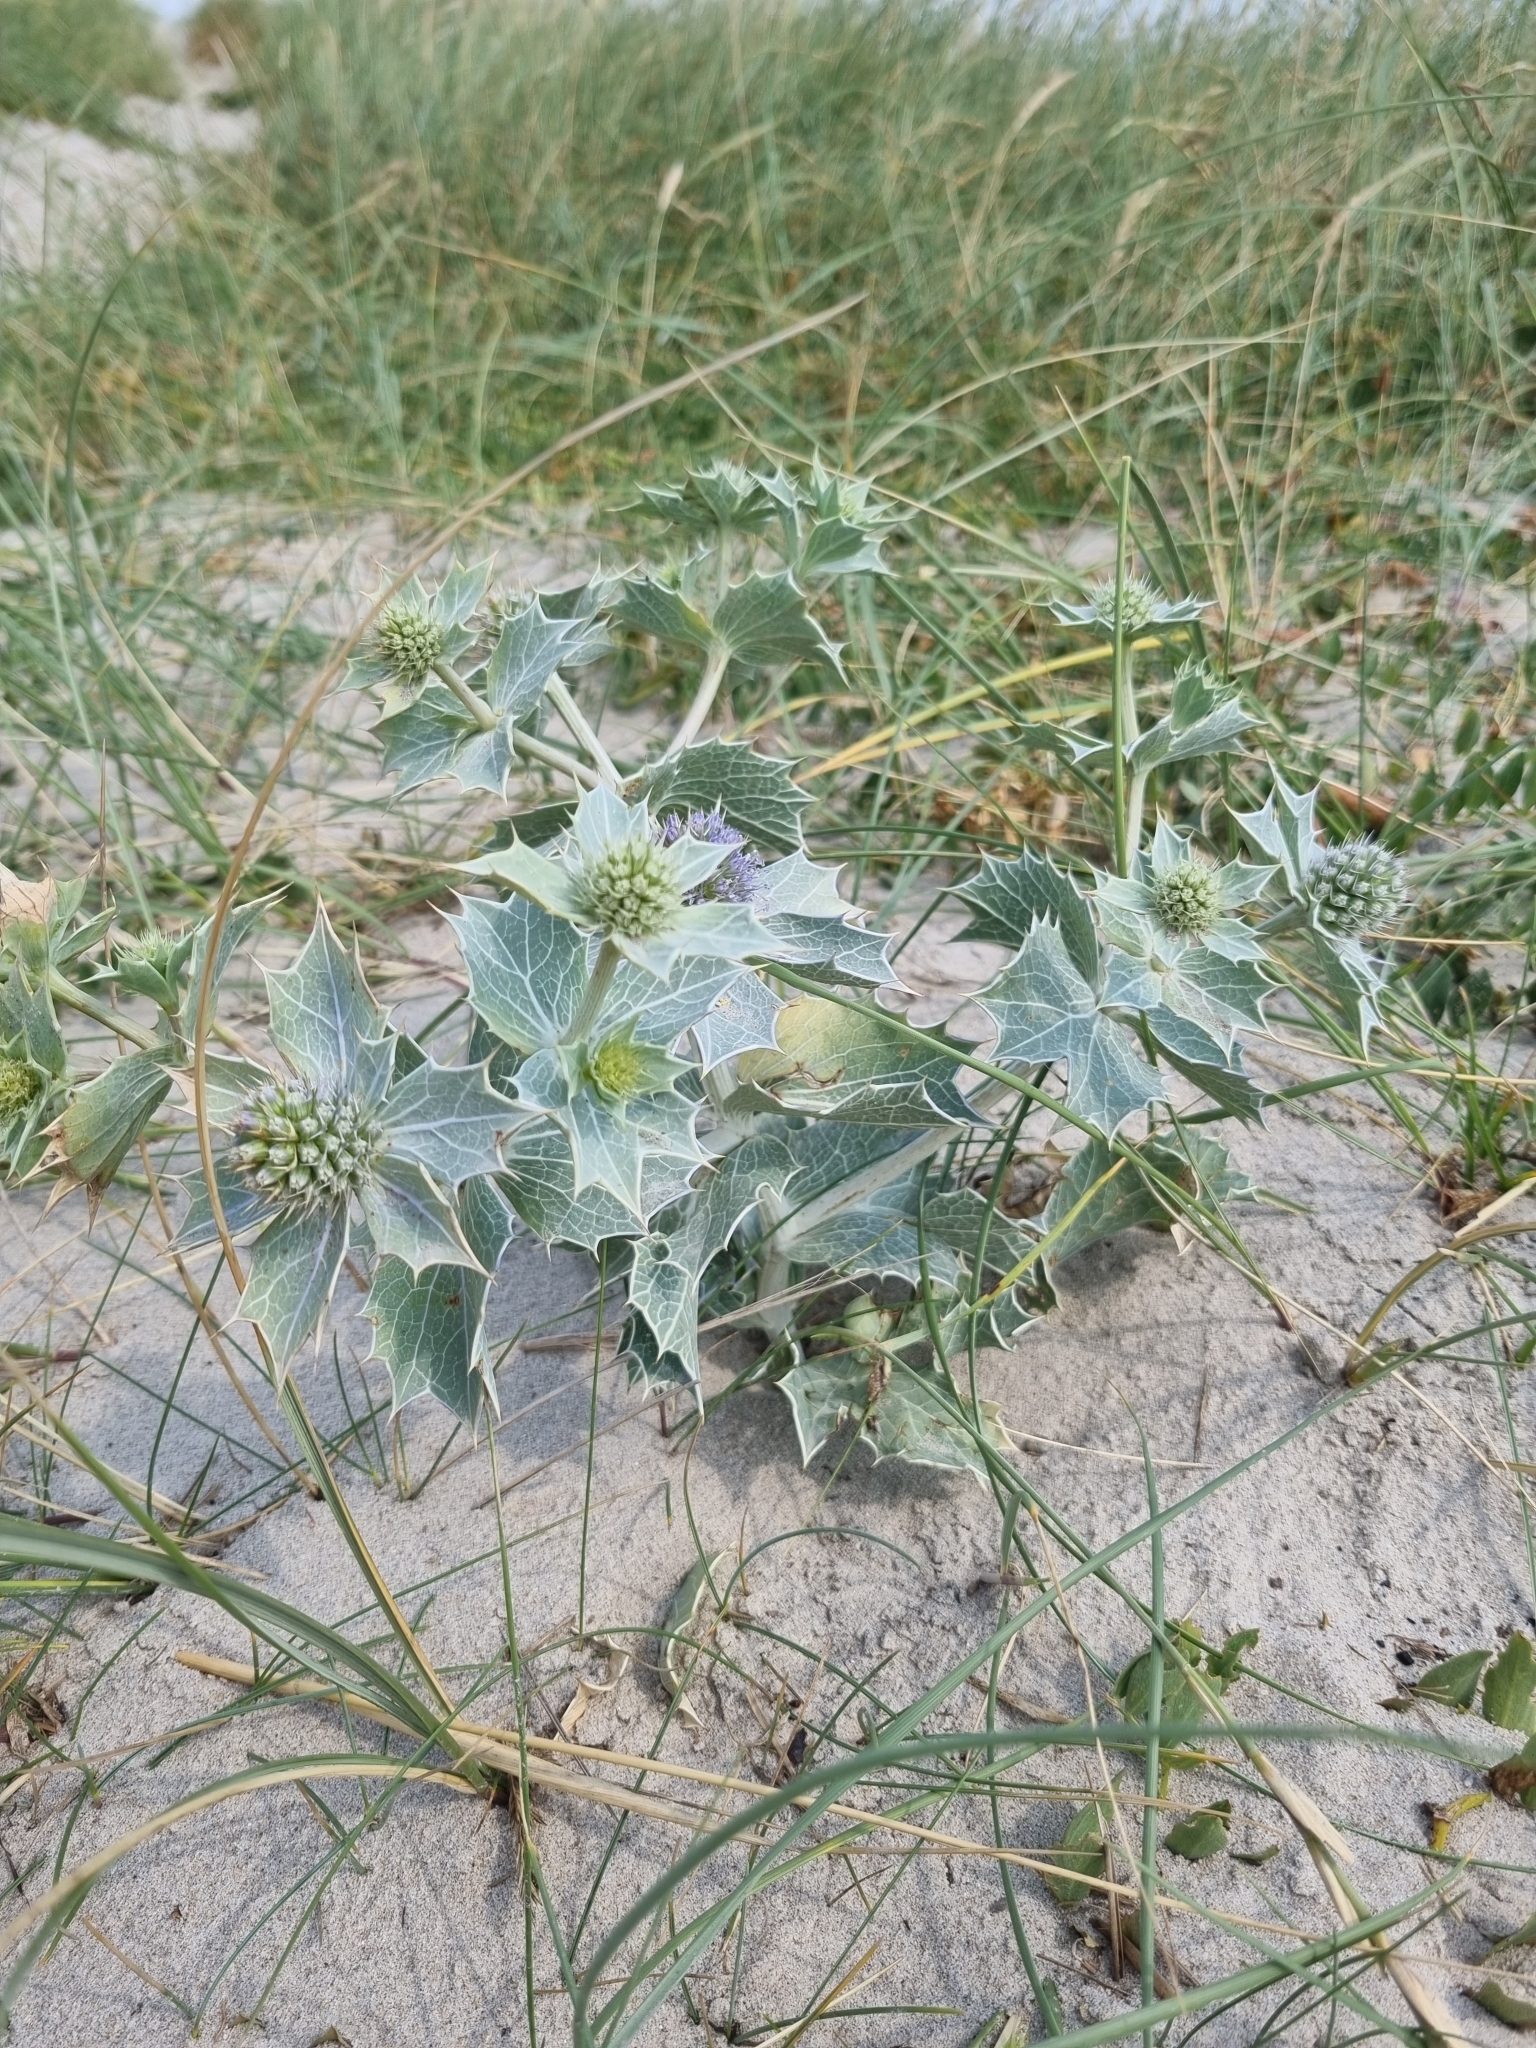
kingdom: Plantae
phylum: Tracheophyta
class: Magnoliopsida
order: Apiales
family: Apiaceae
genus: Eryngium
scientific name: Eryngium maritimum
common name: Sea-holly
